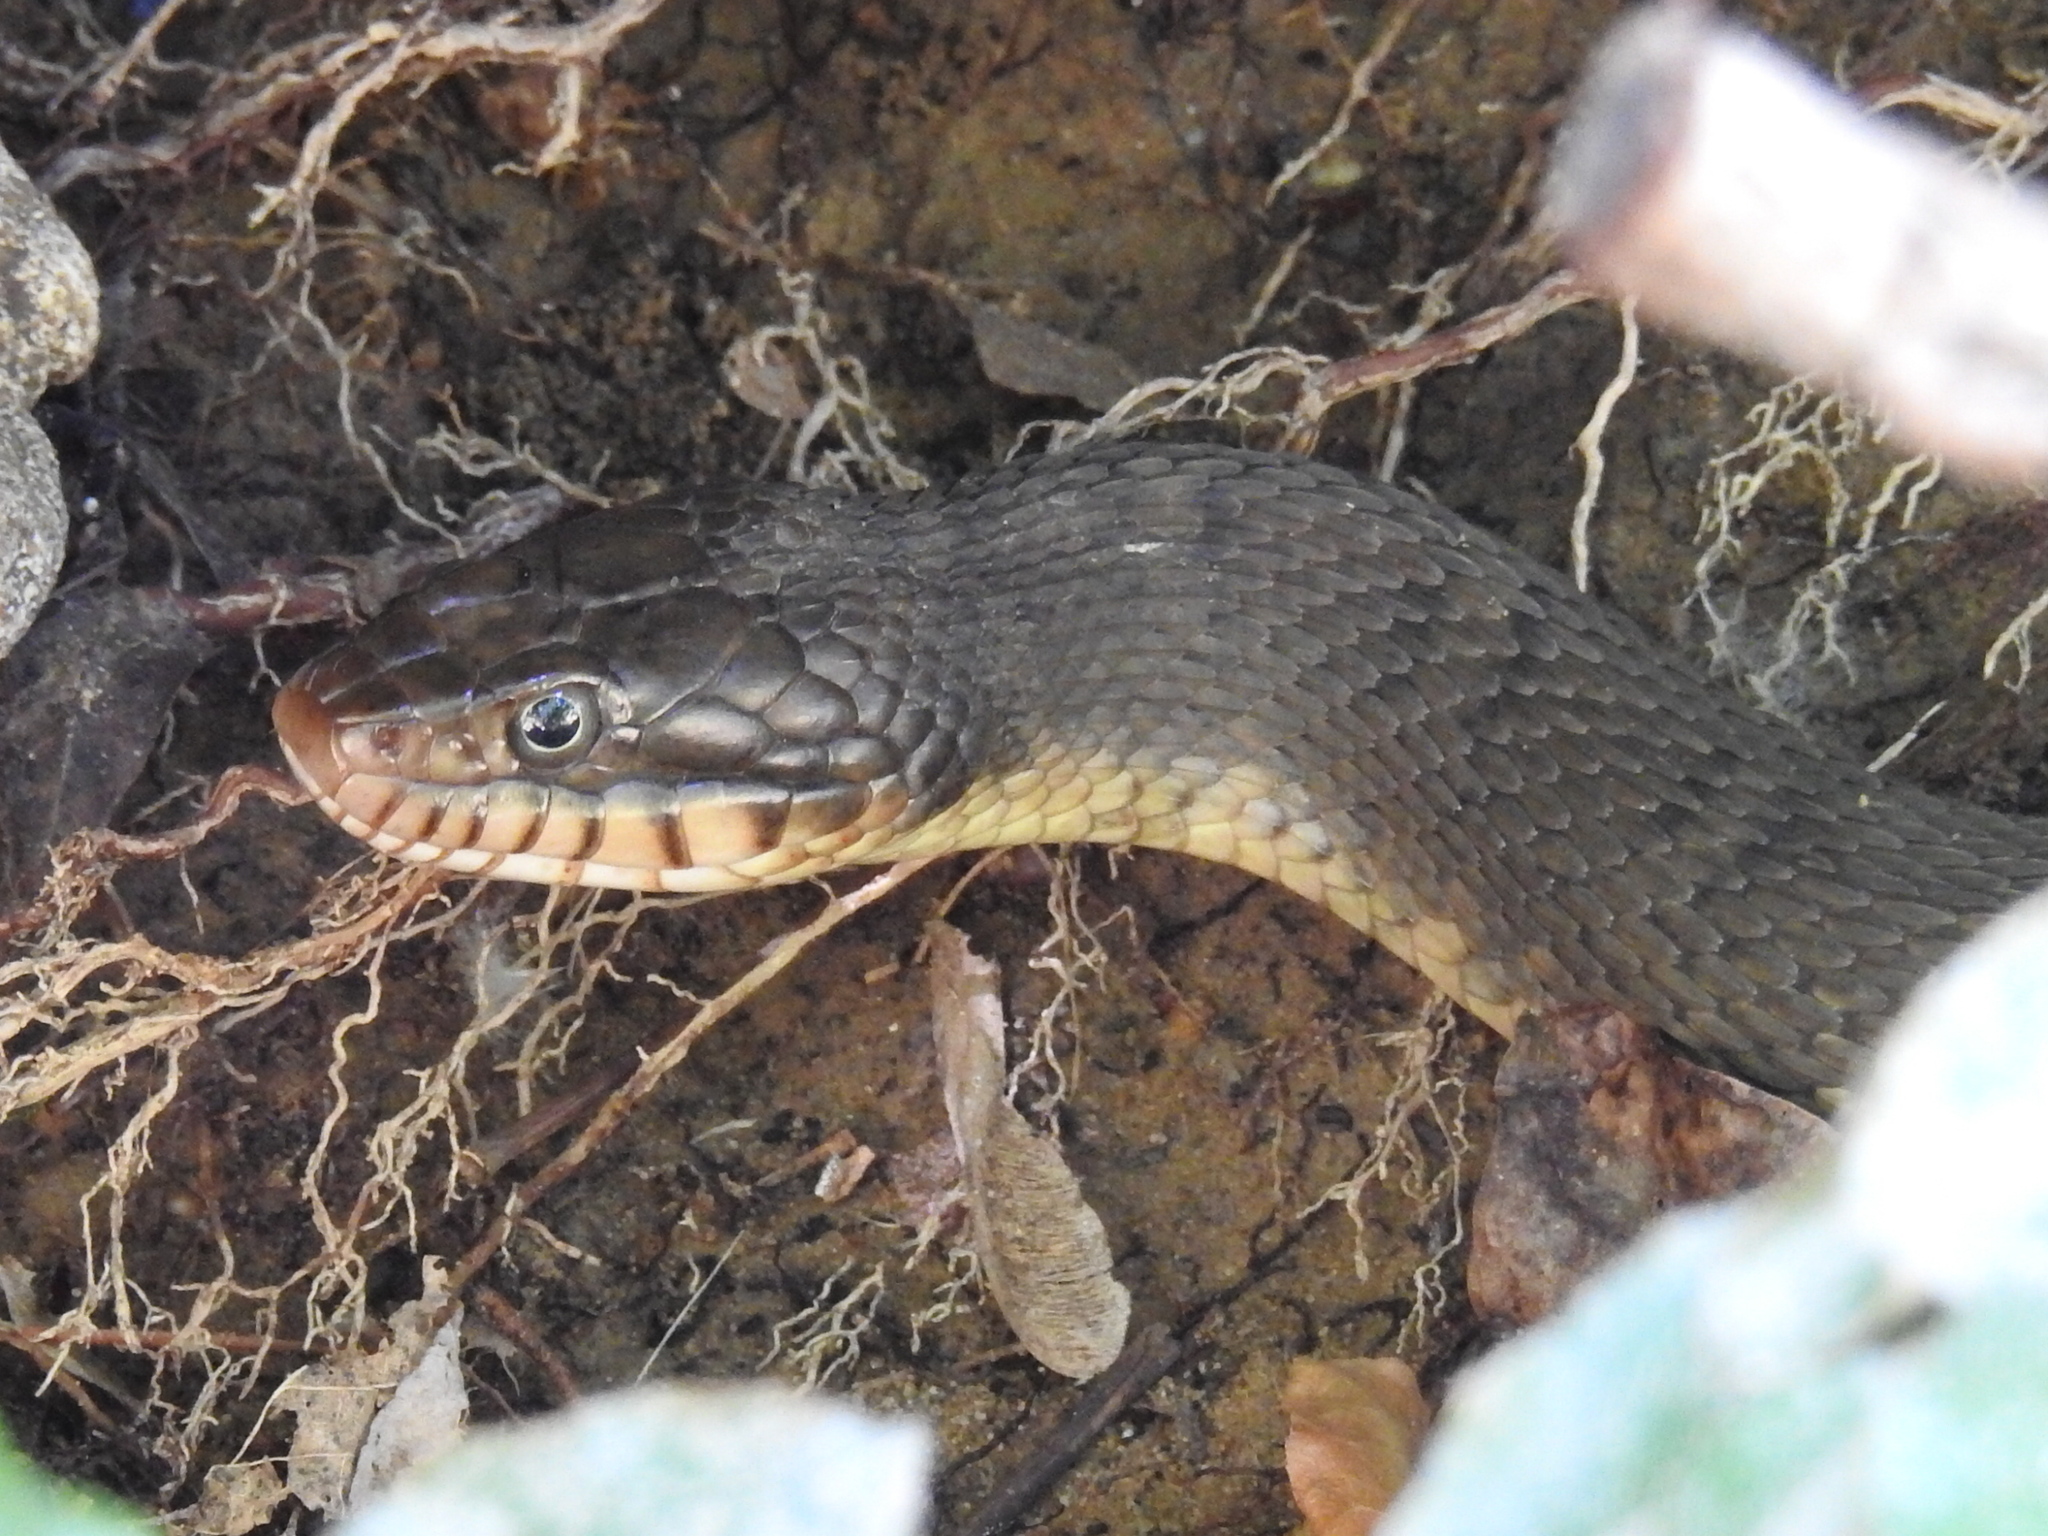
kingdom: Animalia
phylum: Chordata
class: Squamata
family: Colubridae
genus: Nerodia
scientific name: Nerodia erythrogaster
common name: Plainbelly water snake
